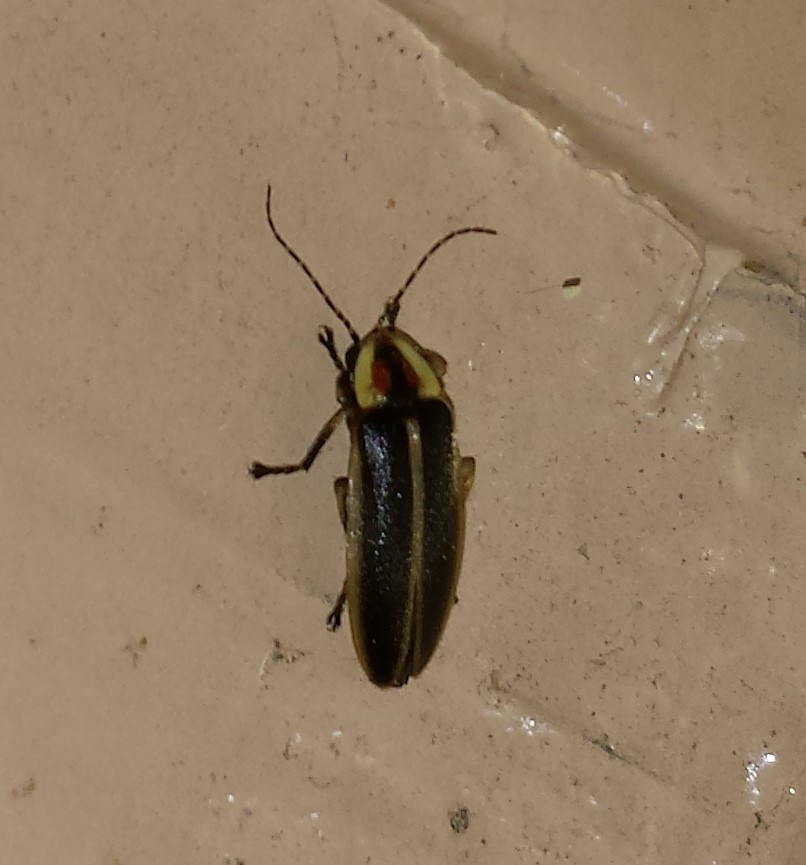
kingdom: Animalia
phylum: Arthropoda
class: Insecta
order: Coleoptera
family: Lampyridae
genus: Photuris
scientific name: Photuris
